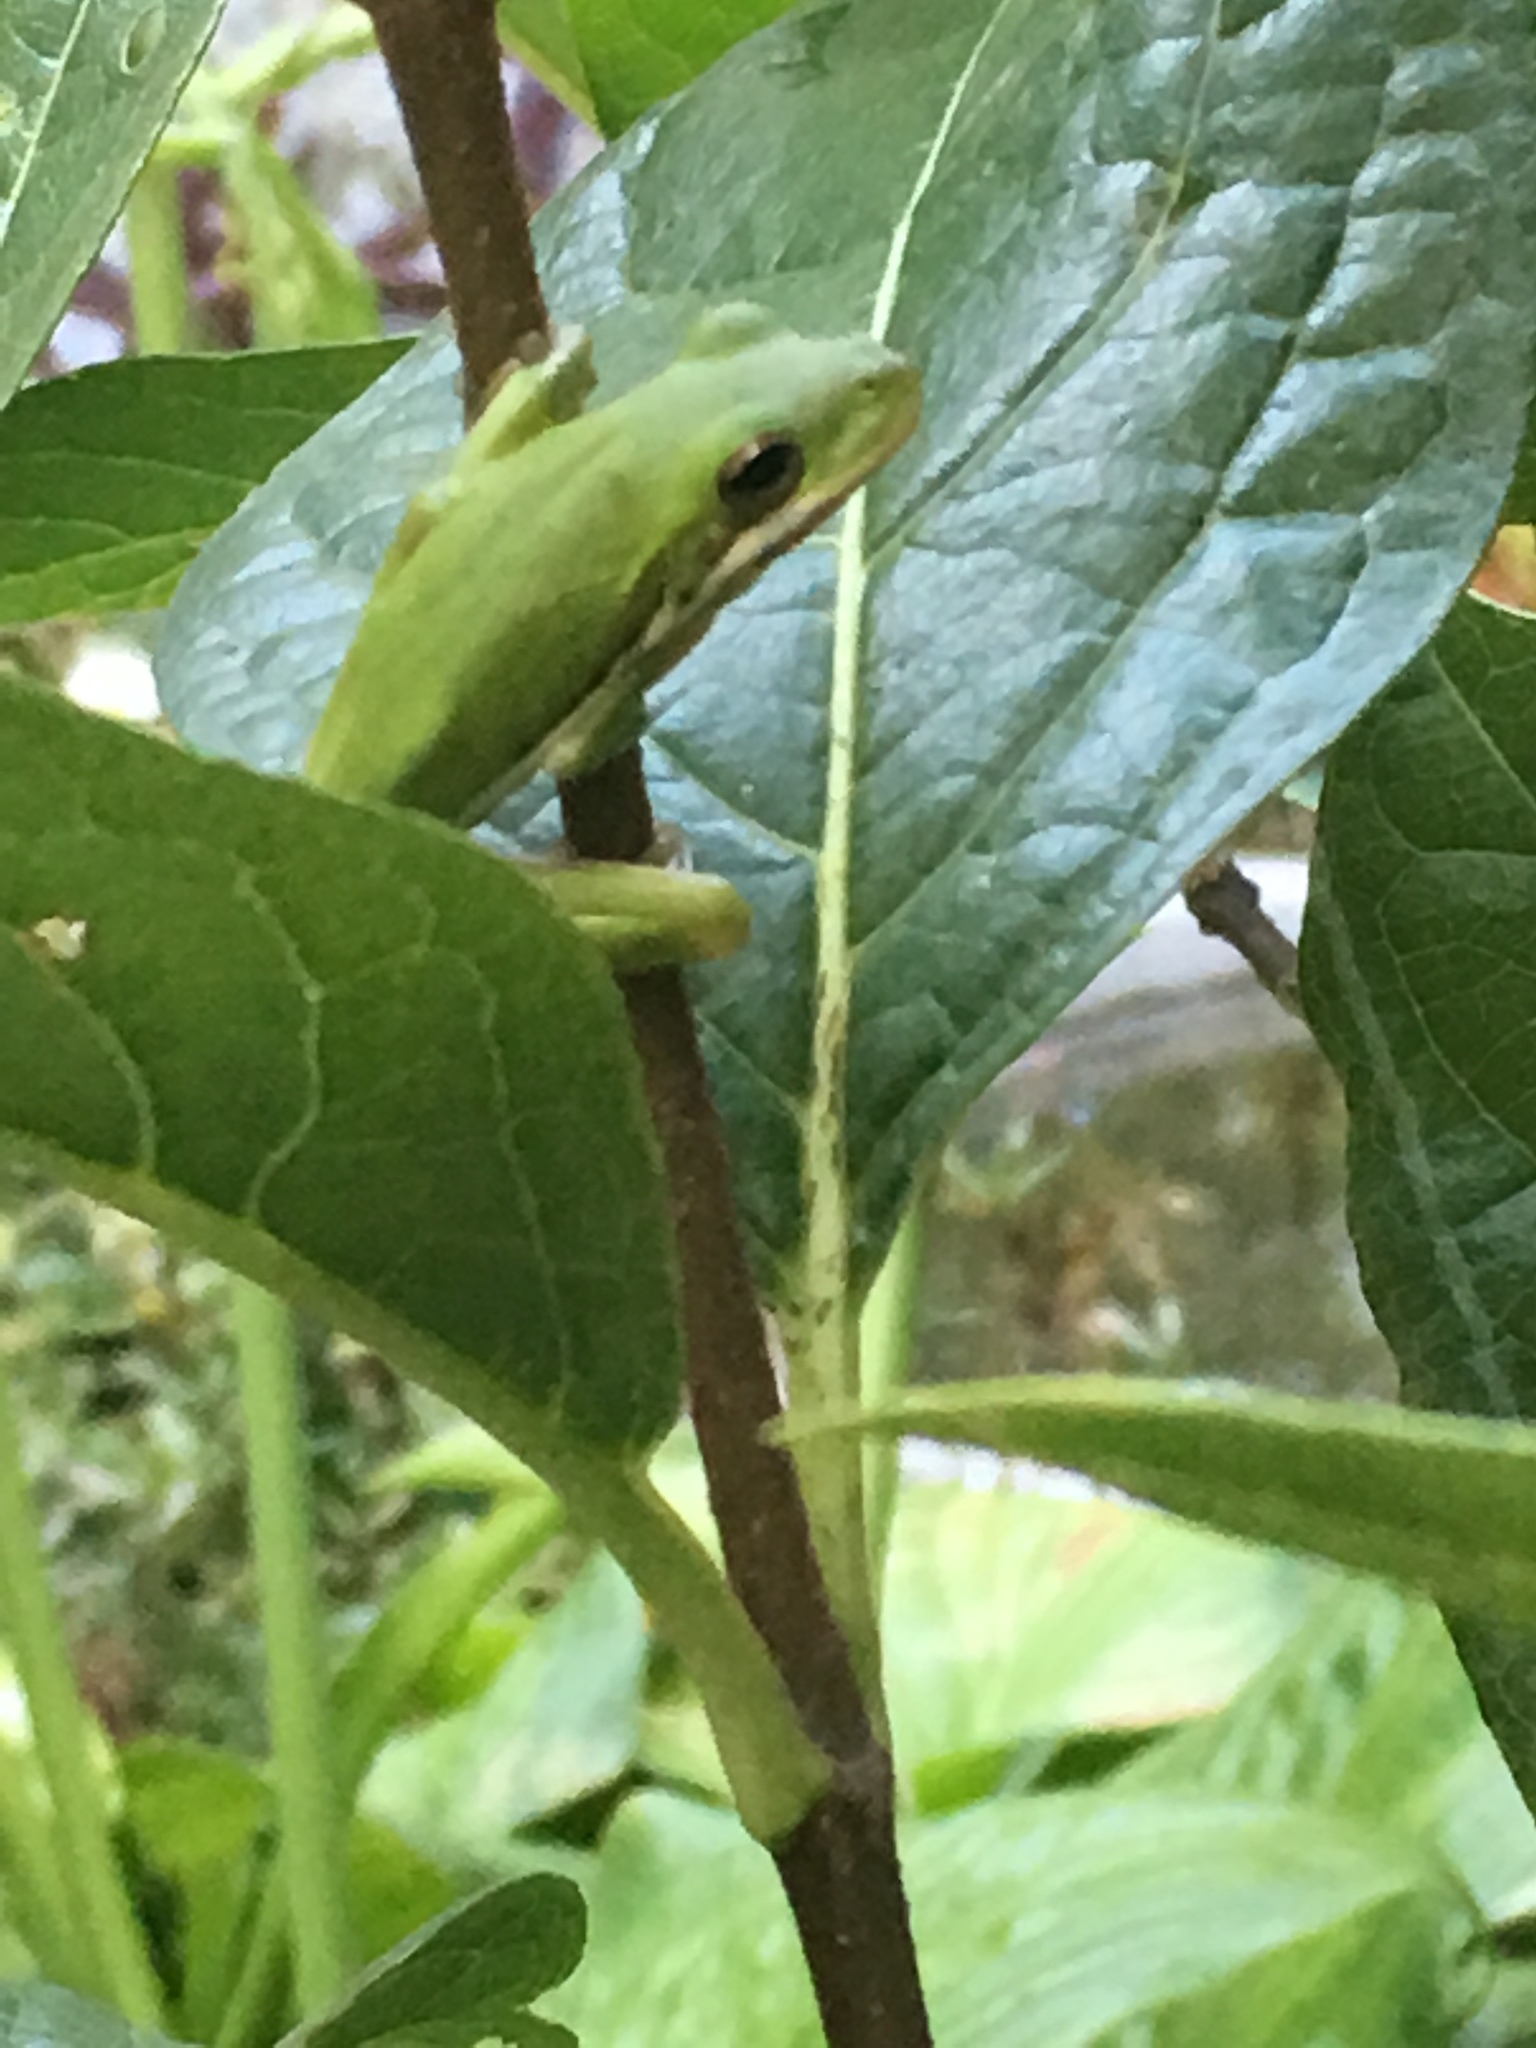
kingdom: Animalia
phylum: Chordata
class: Amphibia
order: Anura
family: Hylidae
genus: Dryophytes
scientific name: Dryophytes cinereus
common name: Green treefrog
